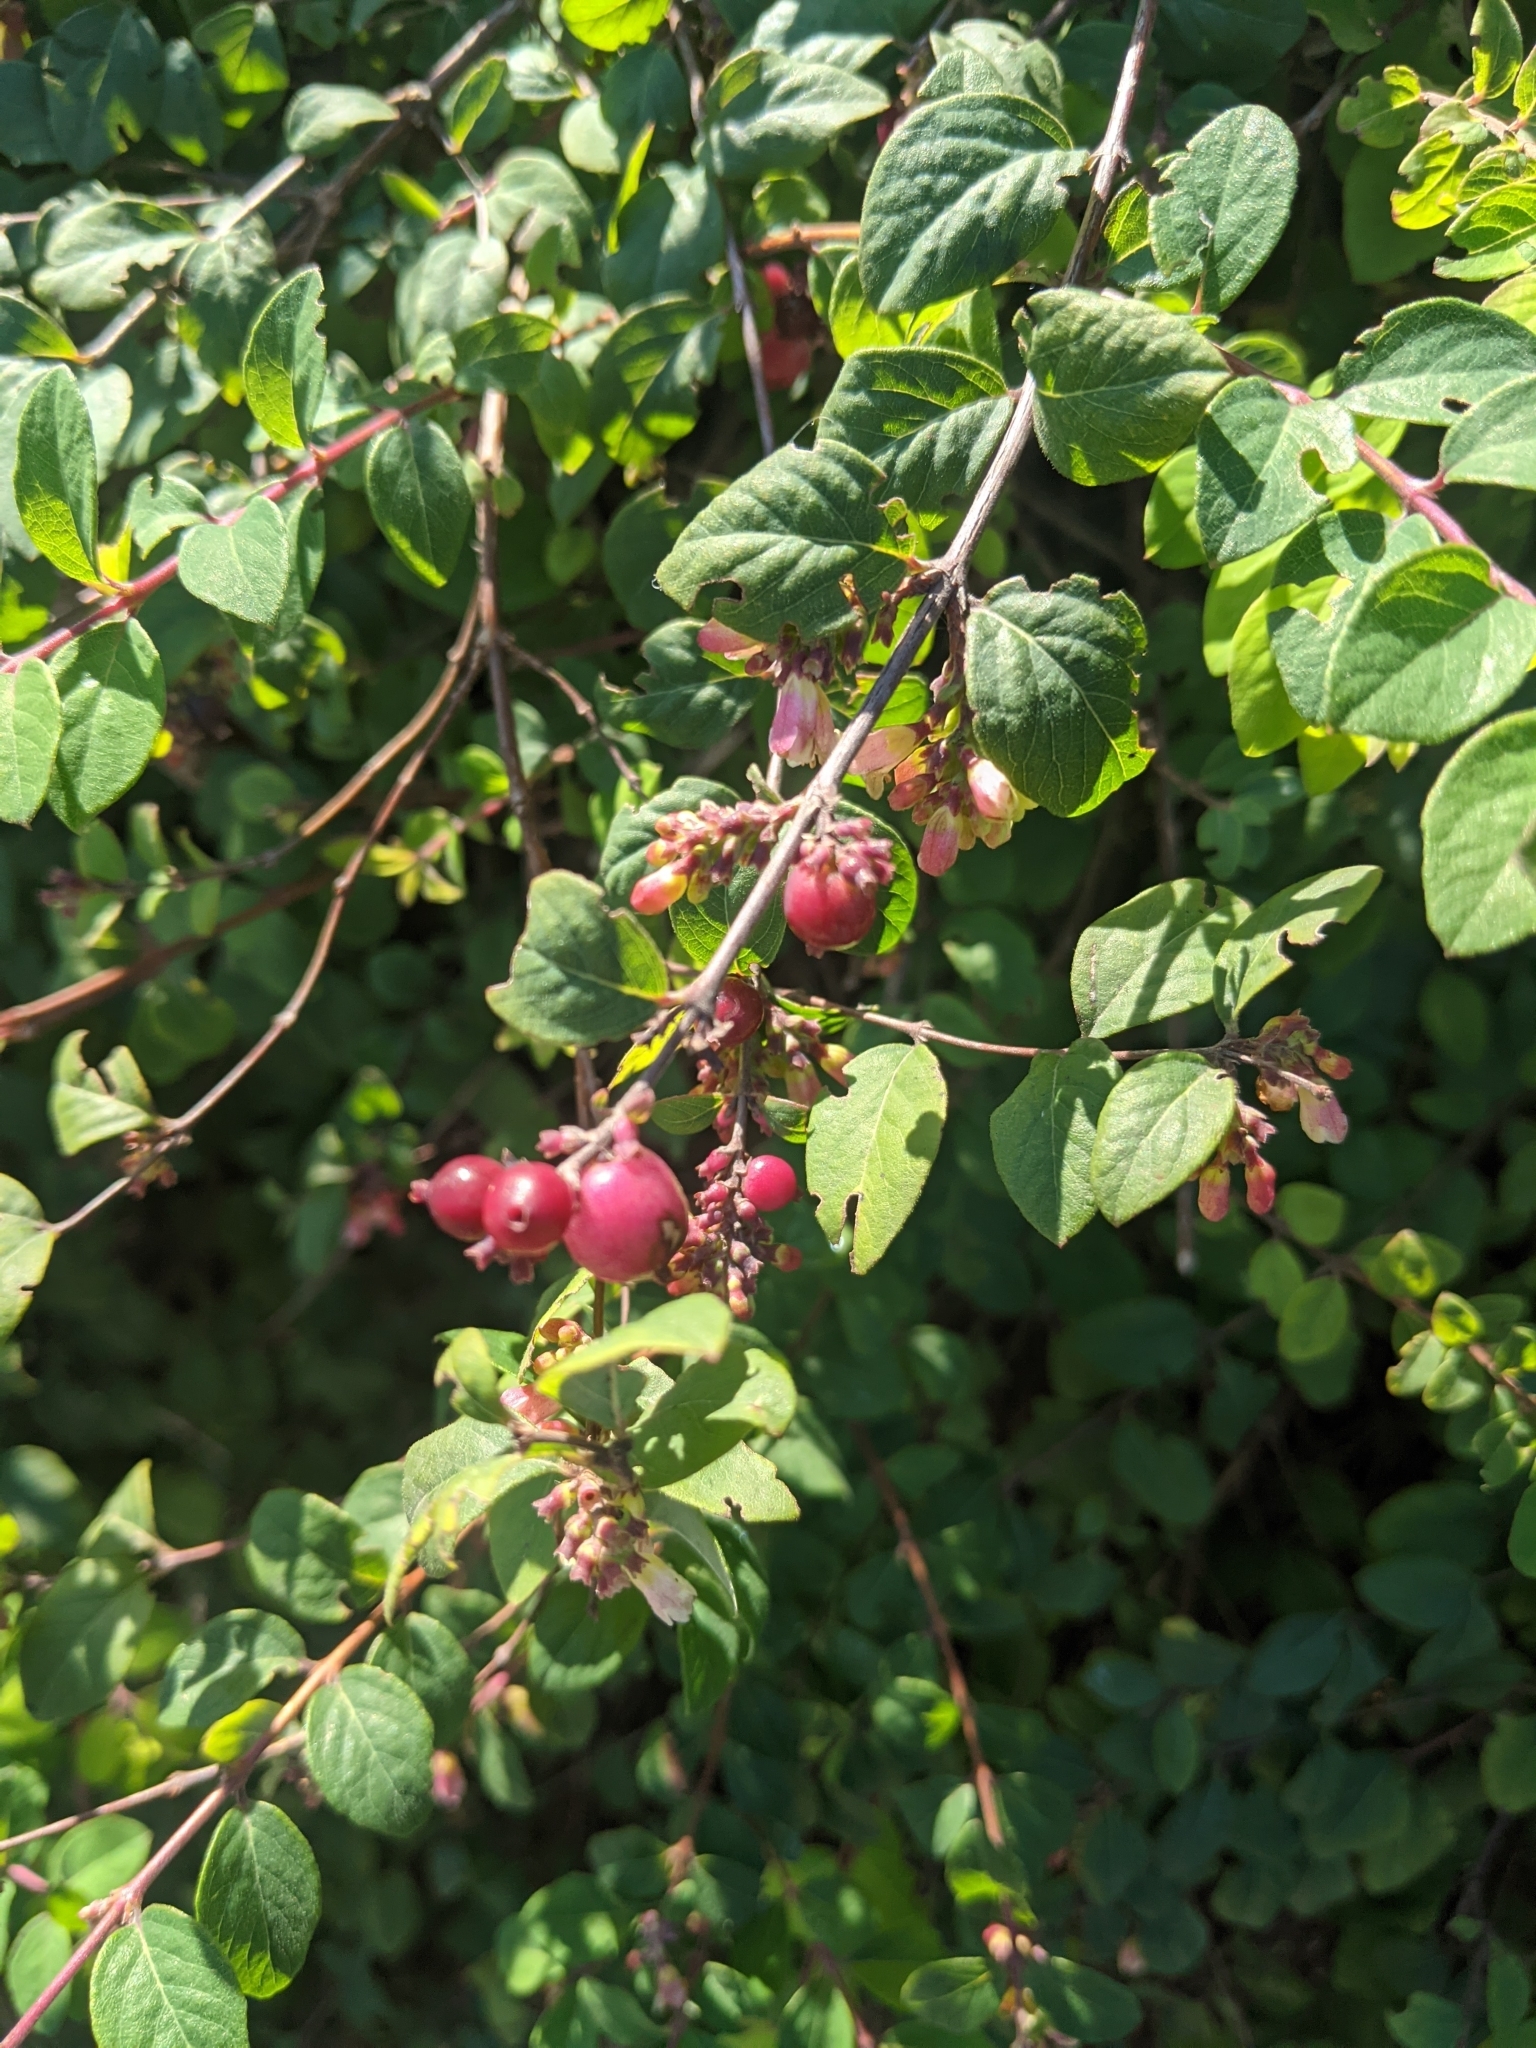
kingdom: Plantae
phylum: Tracheophyta
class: Magnoliopsida
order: Dipsacales
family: Caprifoliaceae
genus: Symphoricarpos
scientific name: Symphoricarpos orbiculatus
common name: Coralberry
